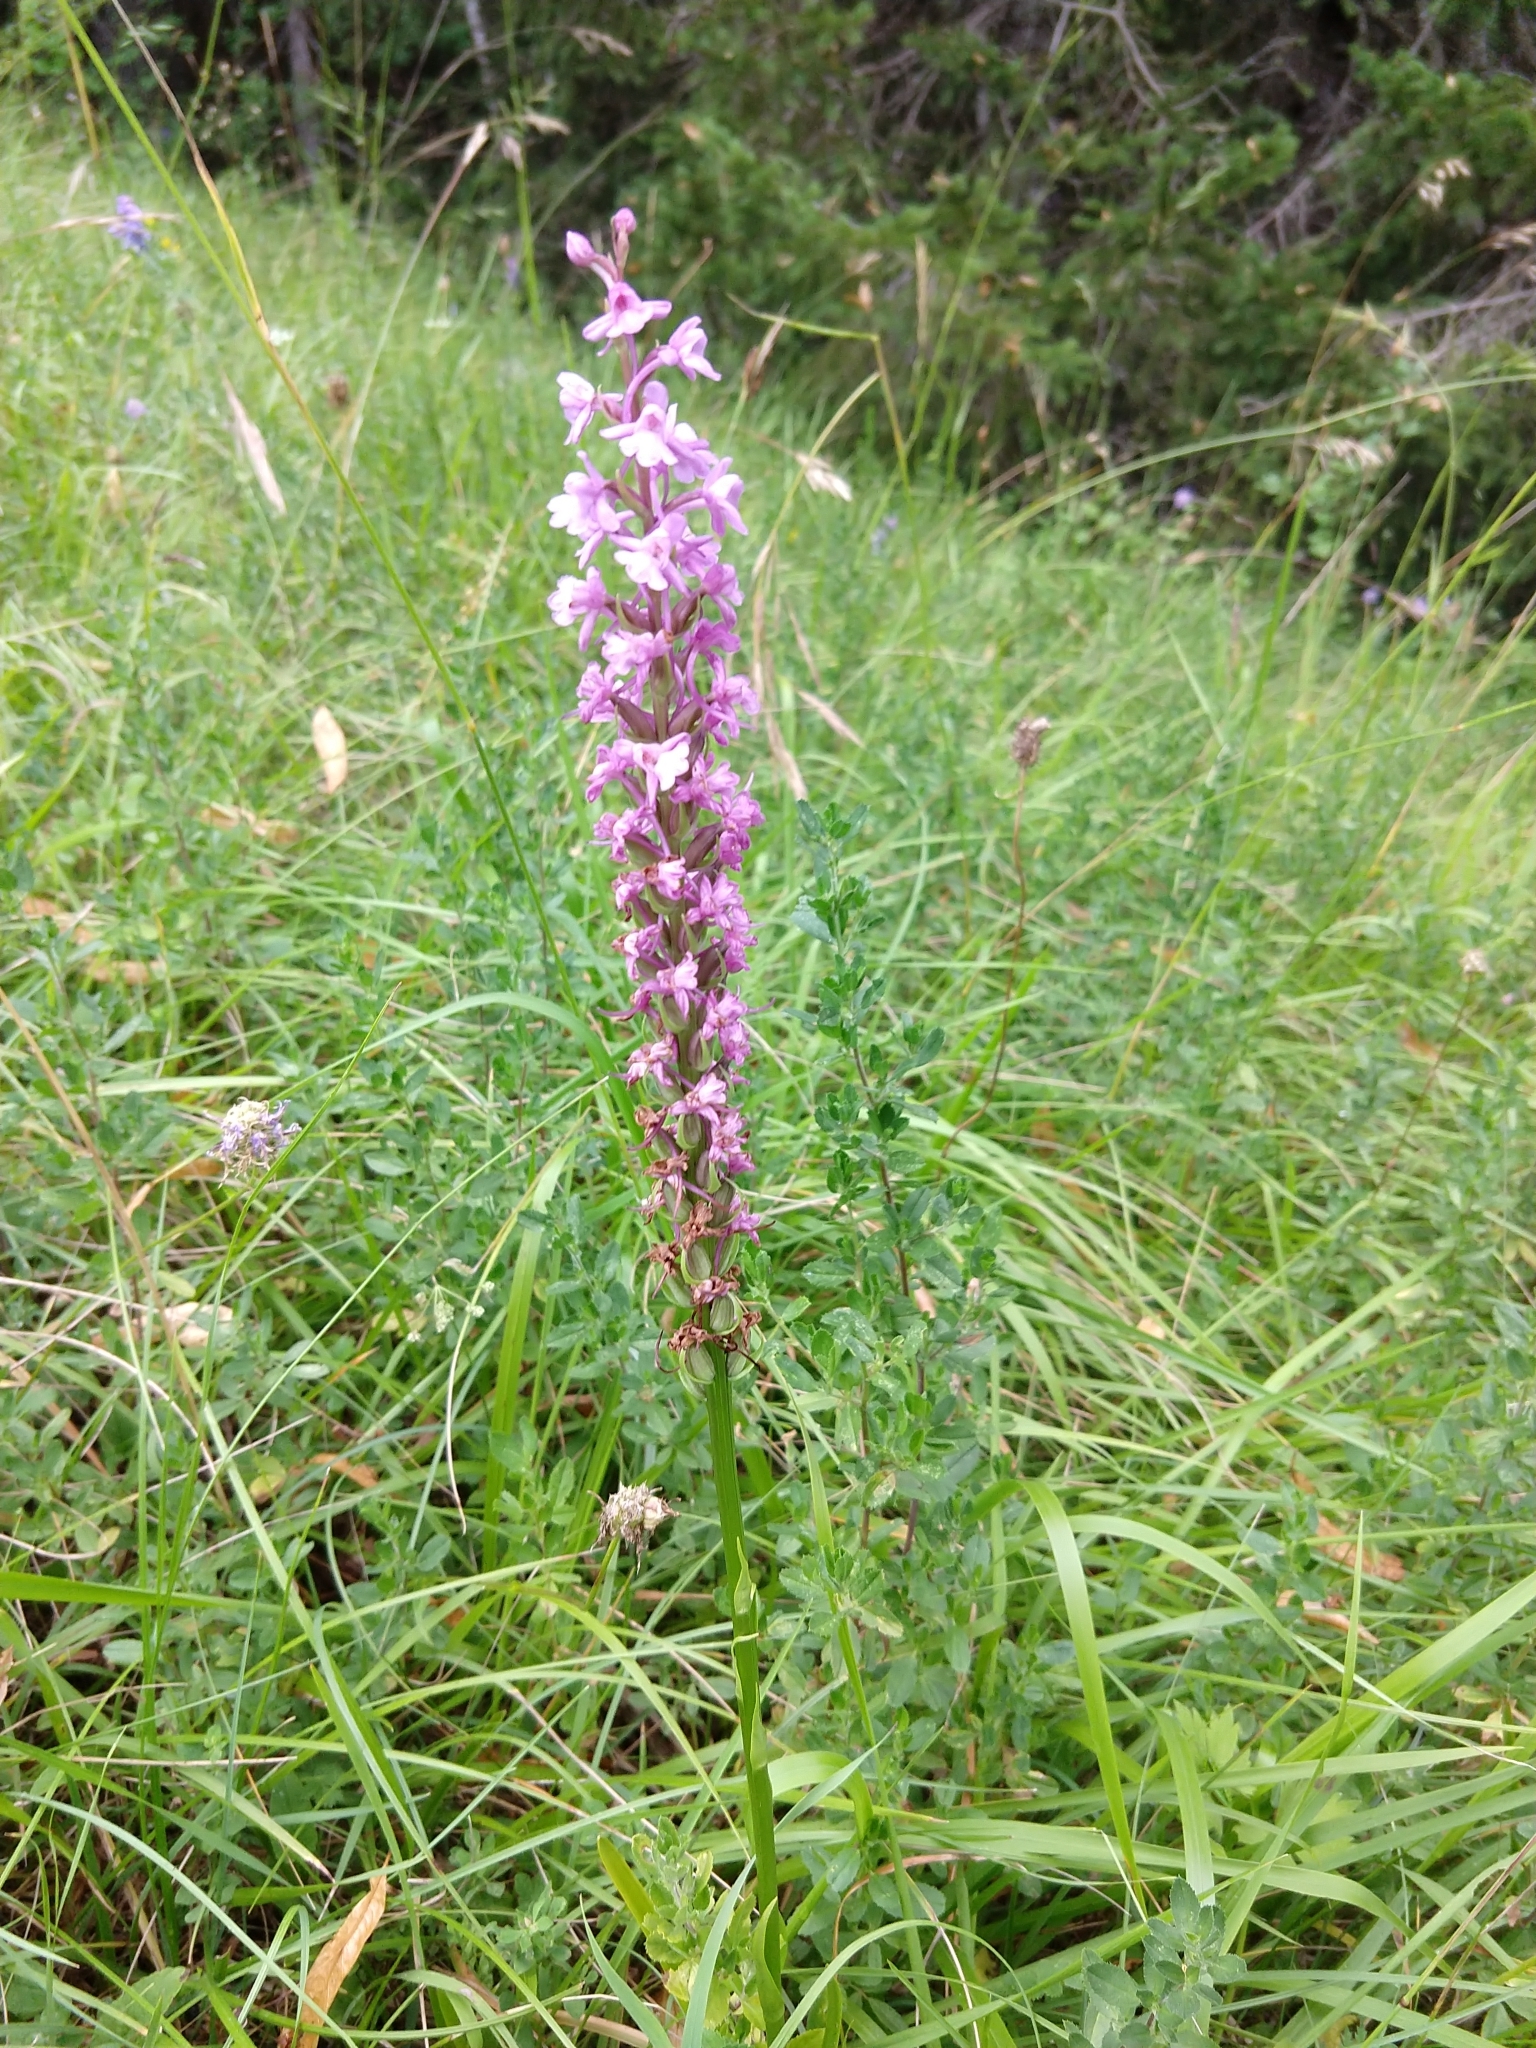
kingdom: Plantae
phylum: Tracheophyta
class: Liliopsida
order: Asparagales
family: Orchidaceae
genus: Gymnadenia
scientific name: Gymnadenia conopsea
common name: Fragrant orchid
